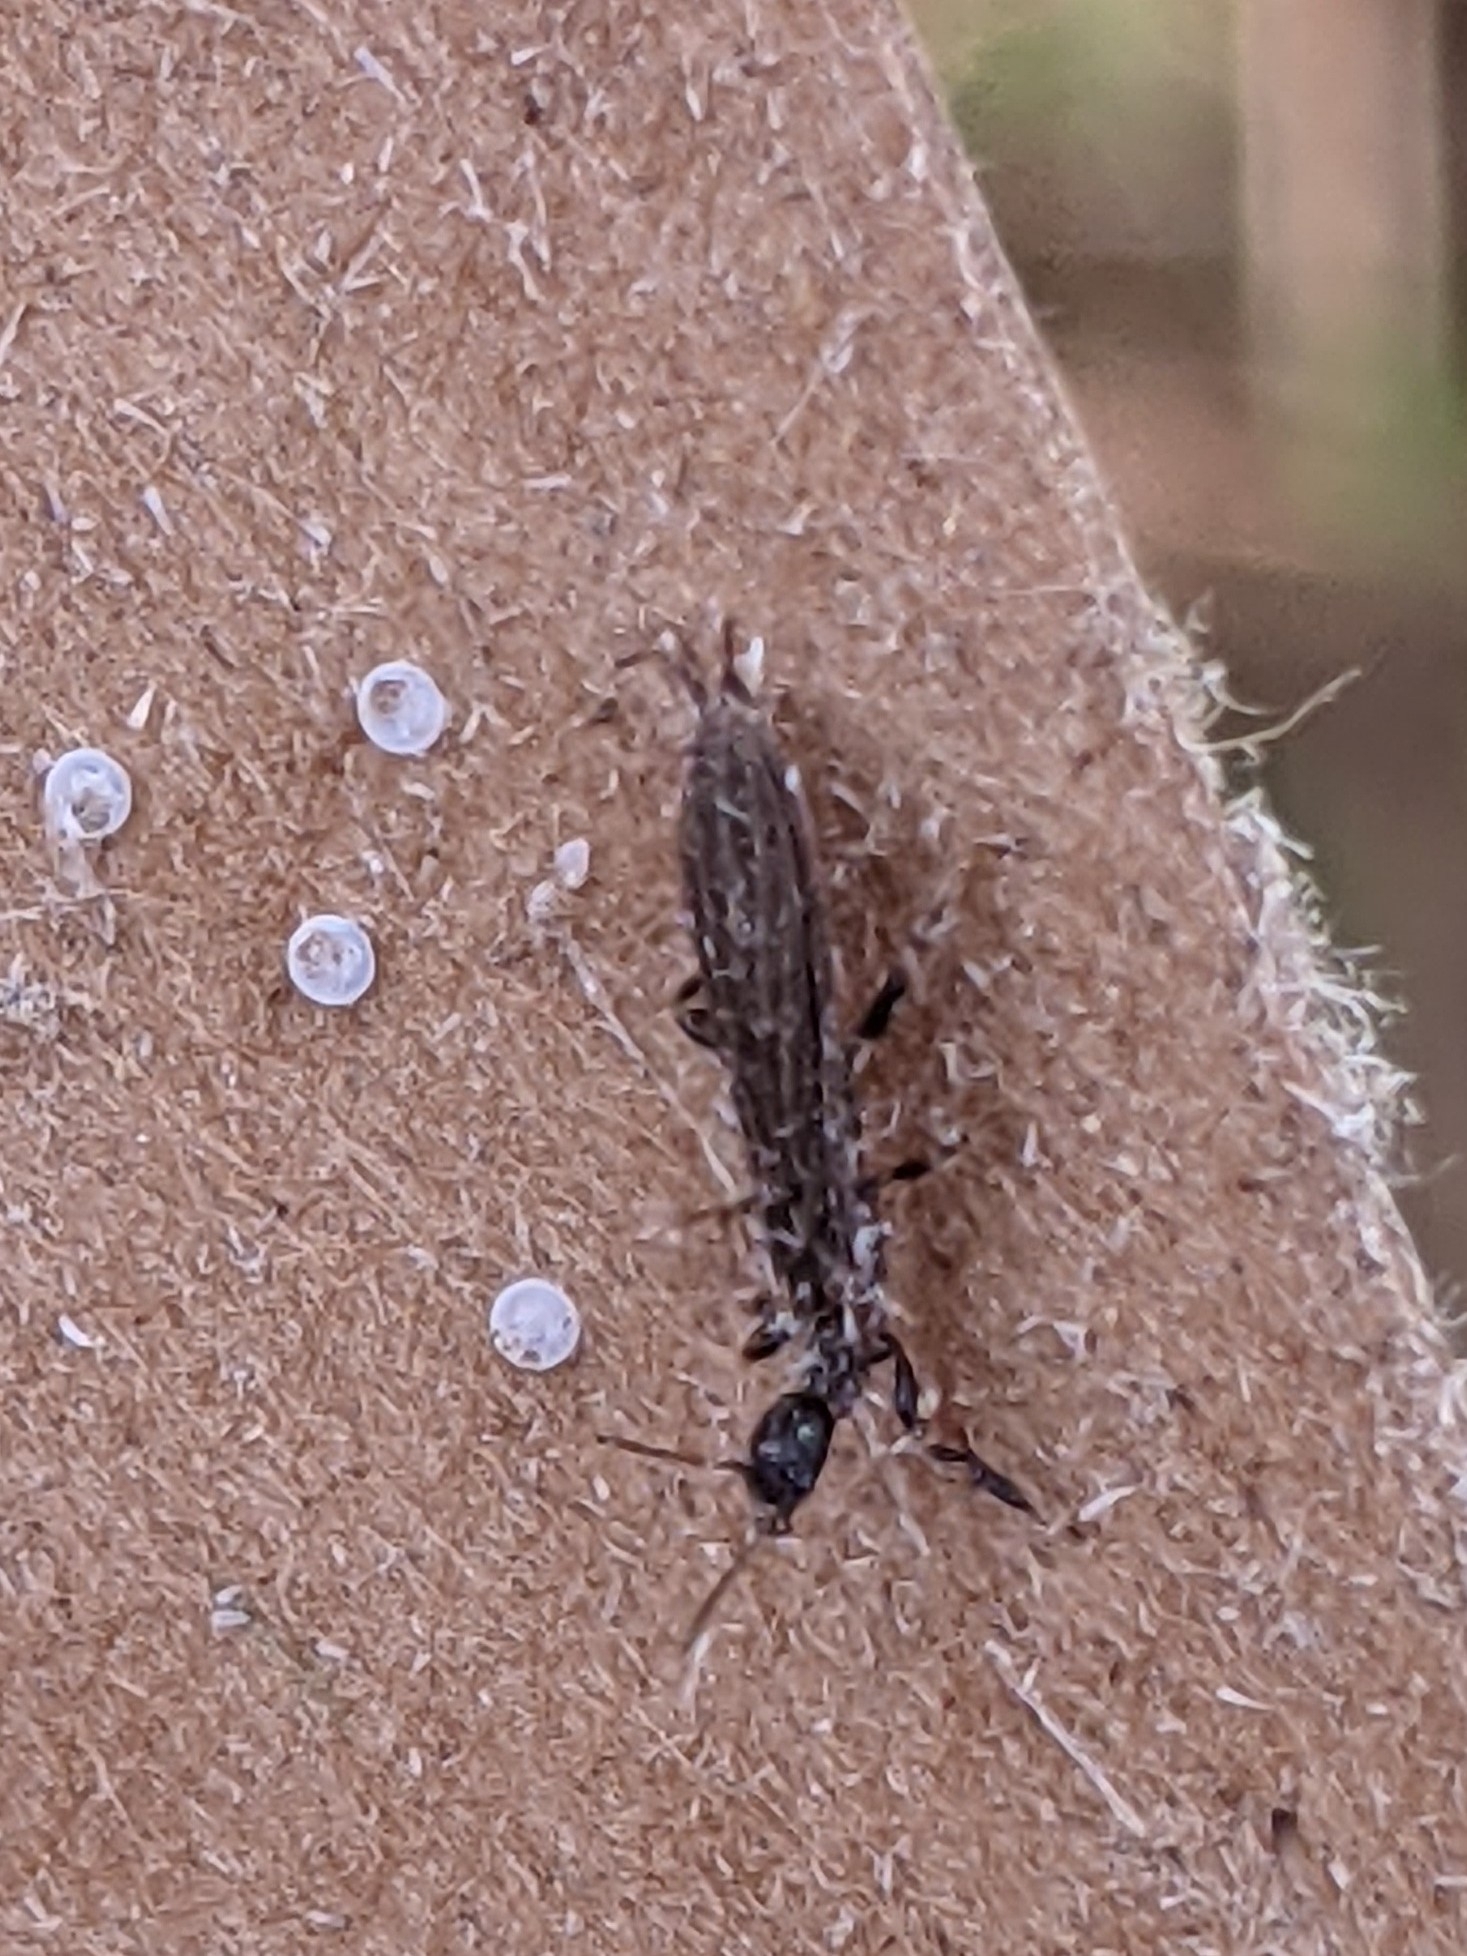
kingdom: Animalia
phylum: Arthropoda
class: Insecta
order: Embioptera
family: Oligotomidae
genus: Oligotoma
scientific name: Oligotoma nigra
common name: Black webspinner
